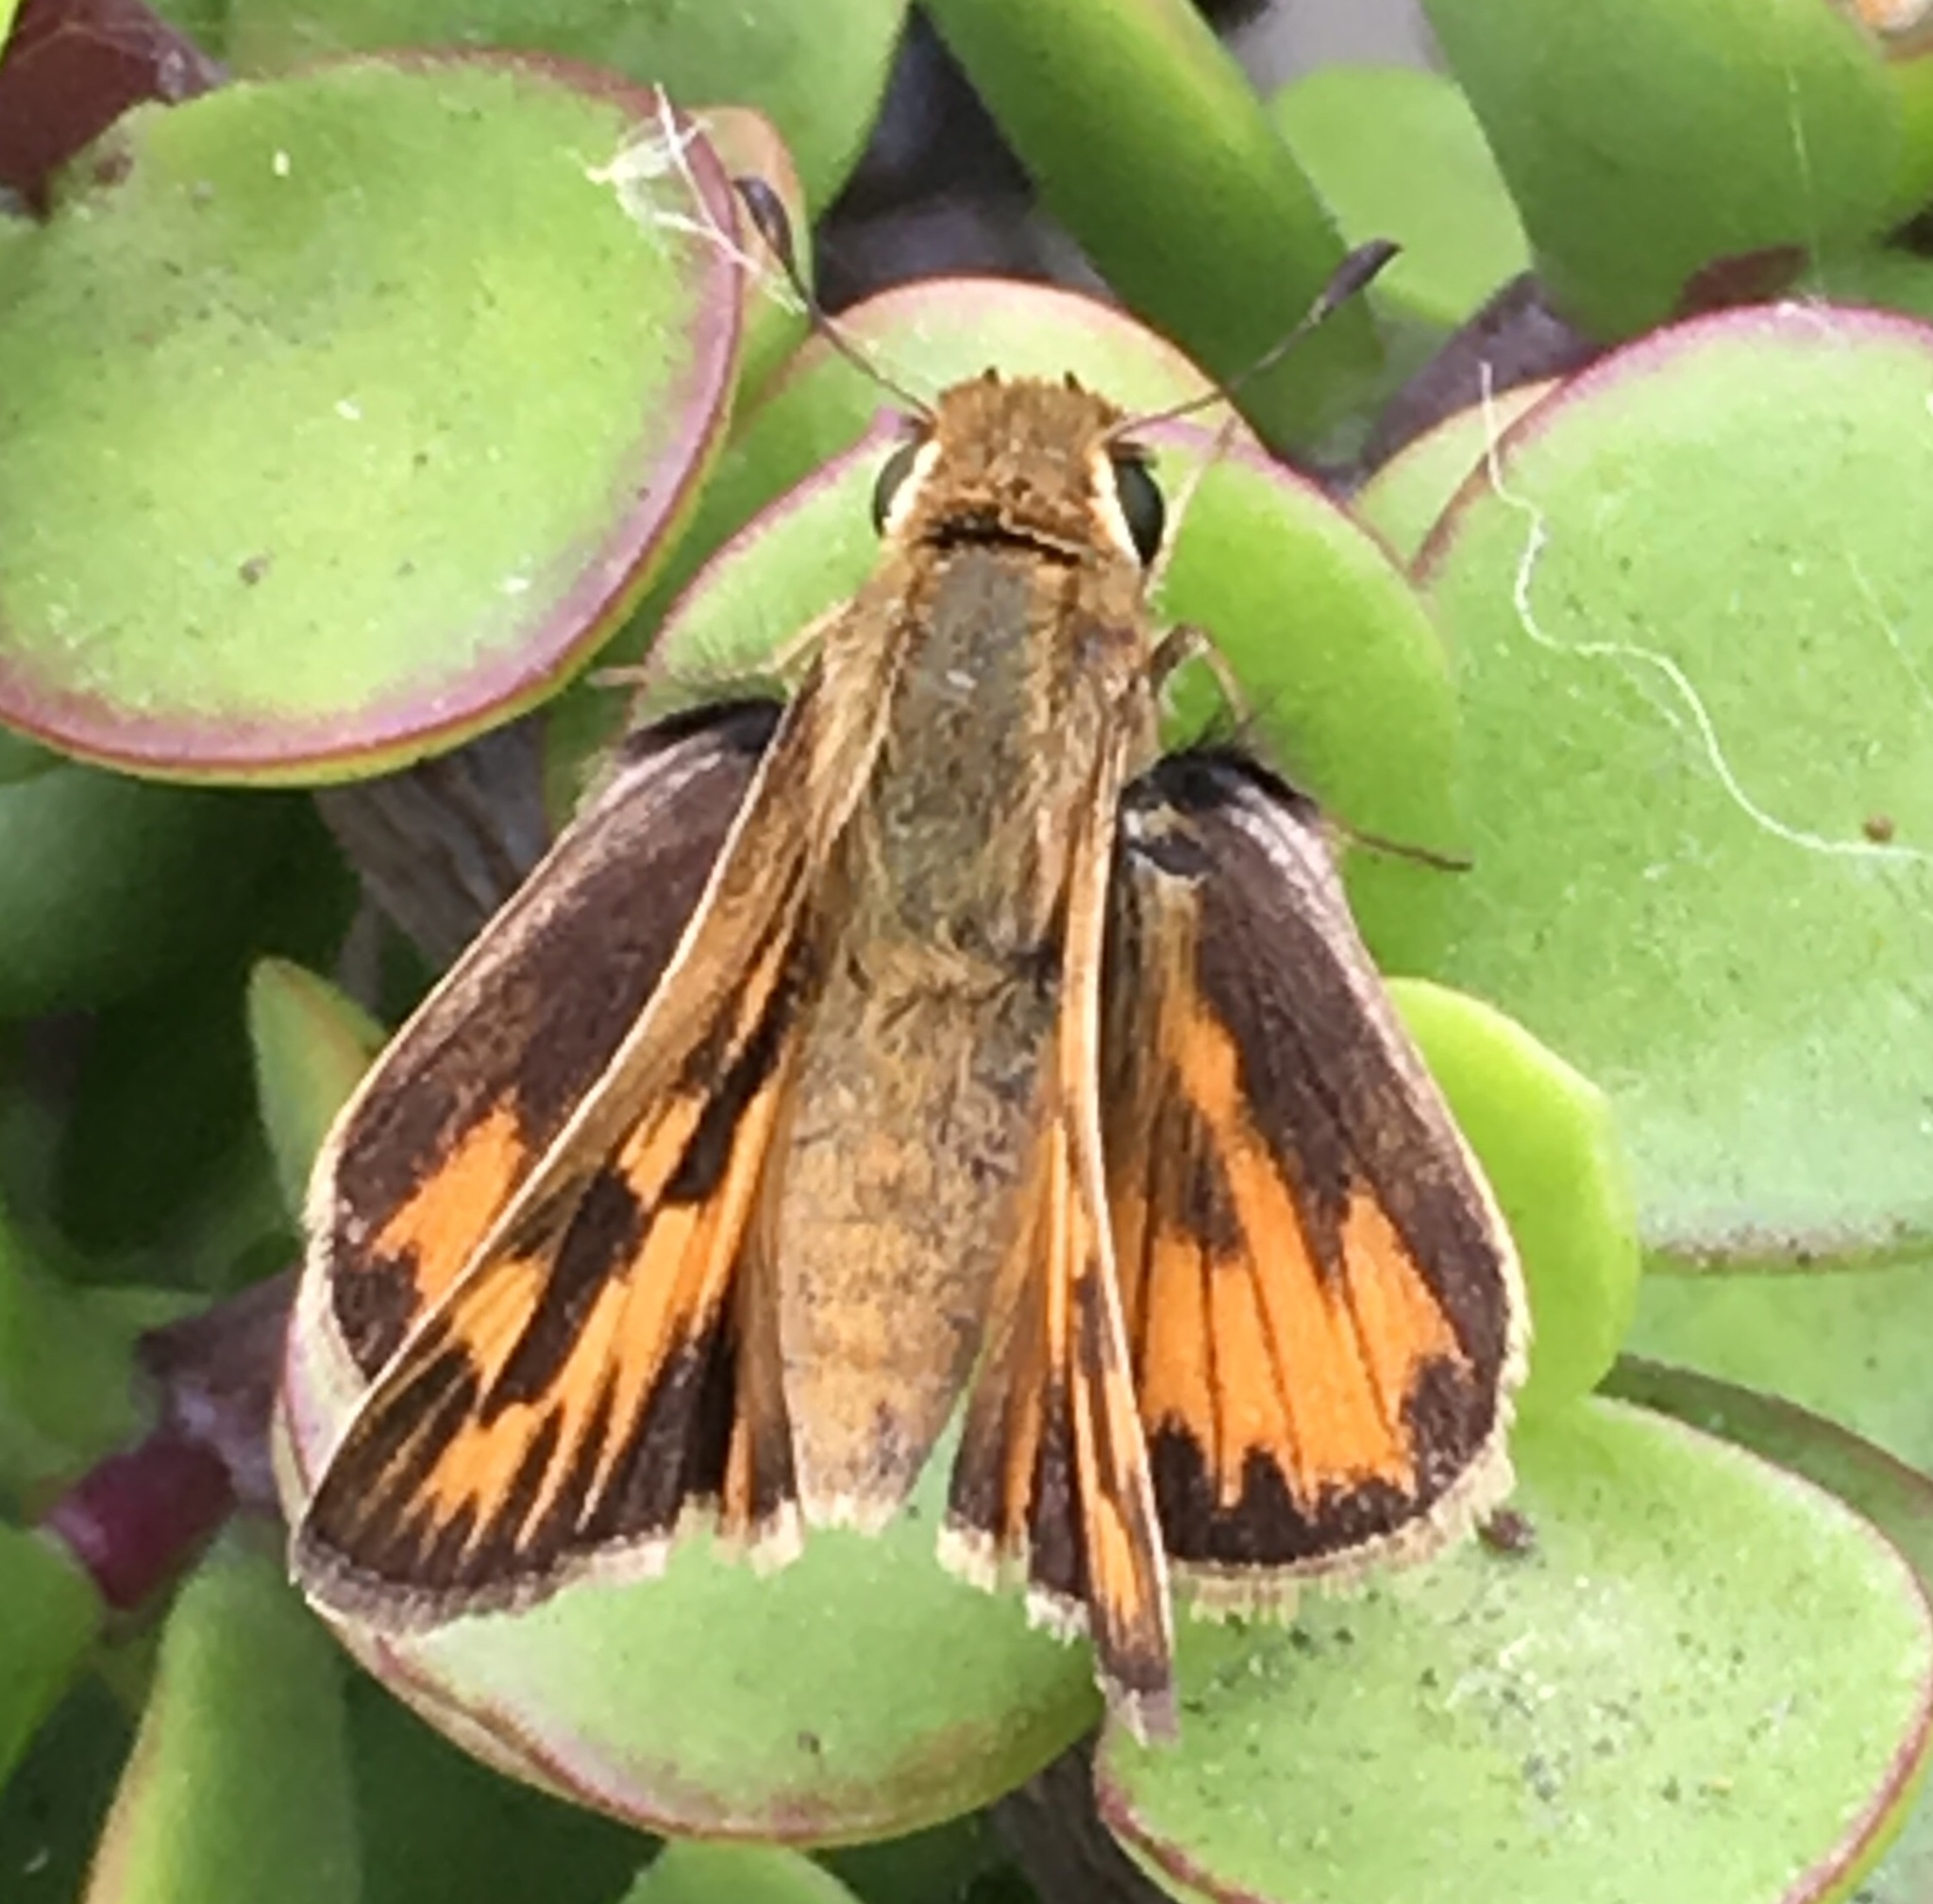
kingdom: Animalia
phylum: Arthropoda
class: Insecta
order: Lepidoptera
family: Hesperiidae
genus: Hylephila
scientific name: Hylephila phyleus
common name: Fiery skipper
